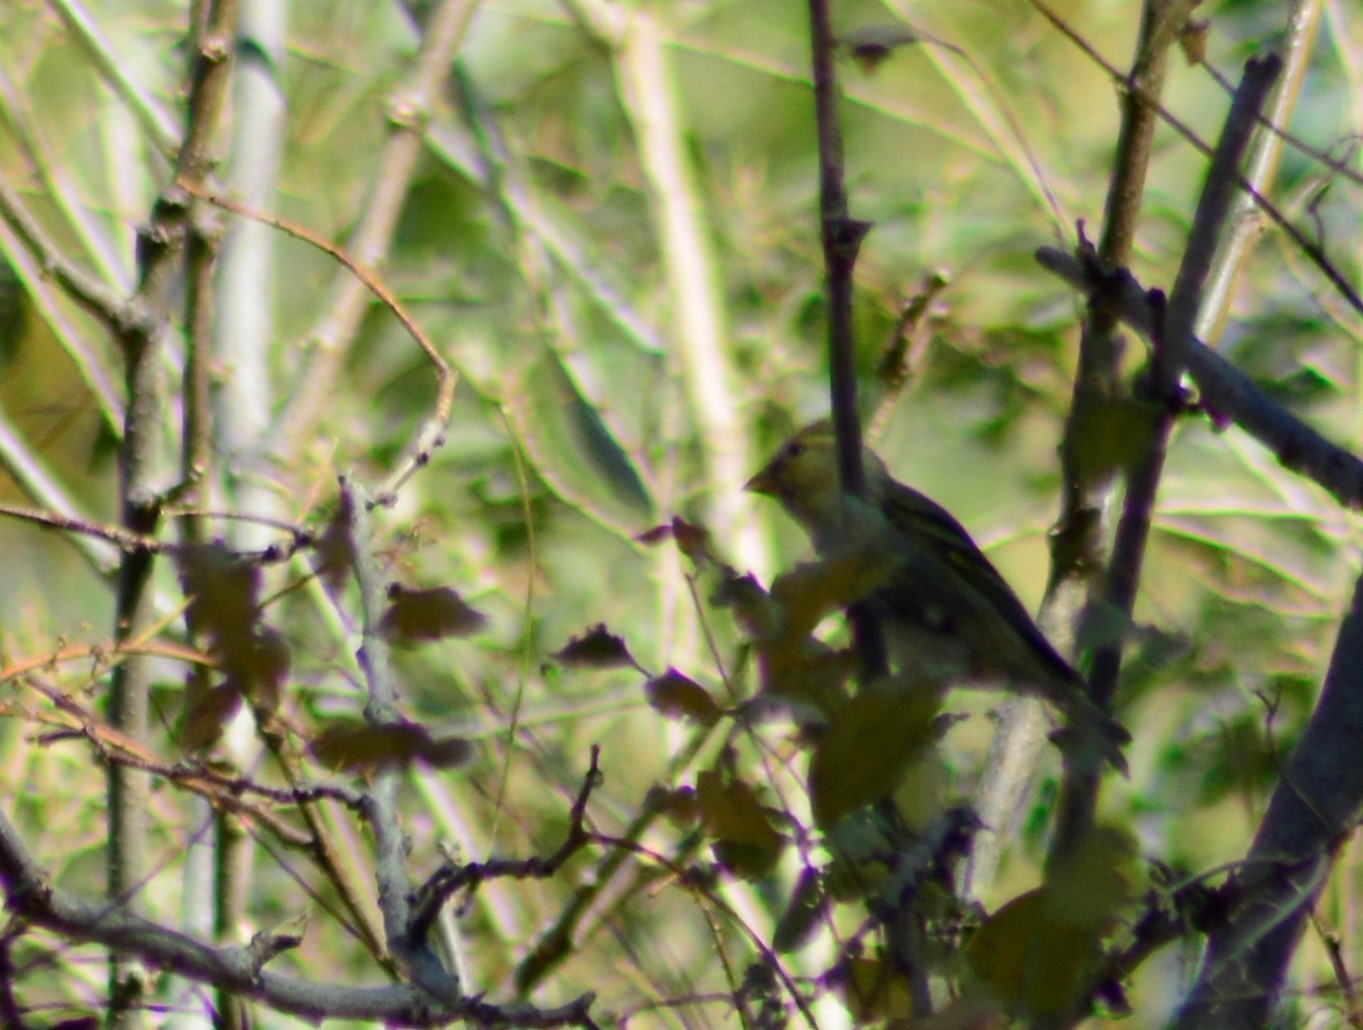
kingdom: Animalia
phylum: Chordata
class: Aves
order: Passeriformes
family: Fringillidae
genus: Spinus
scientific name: Spinus barbatus
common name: Black-chinned siskin
